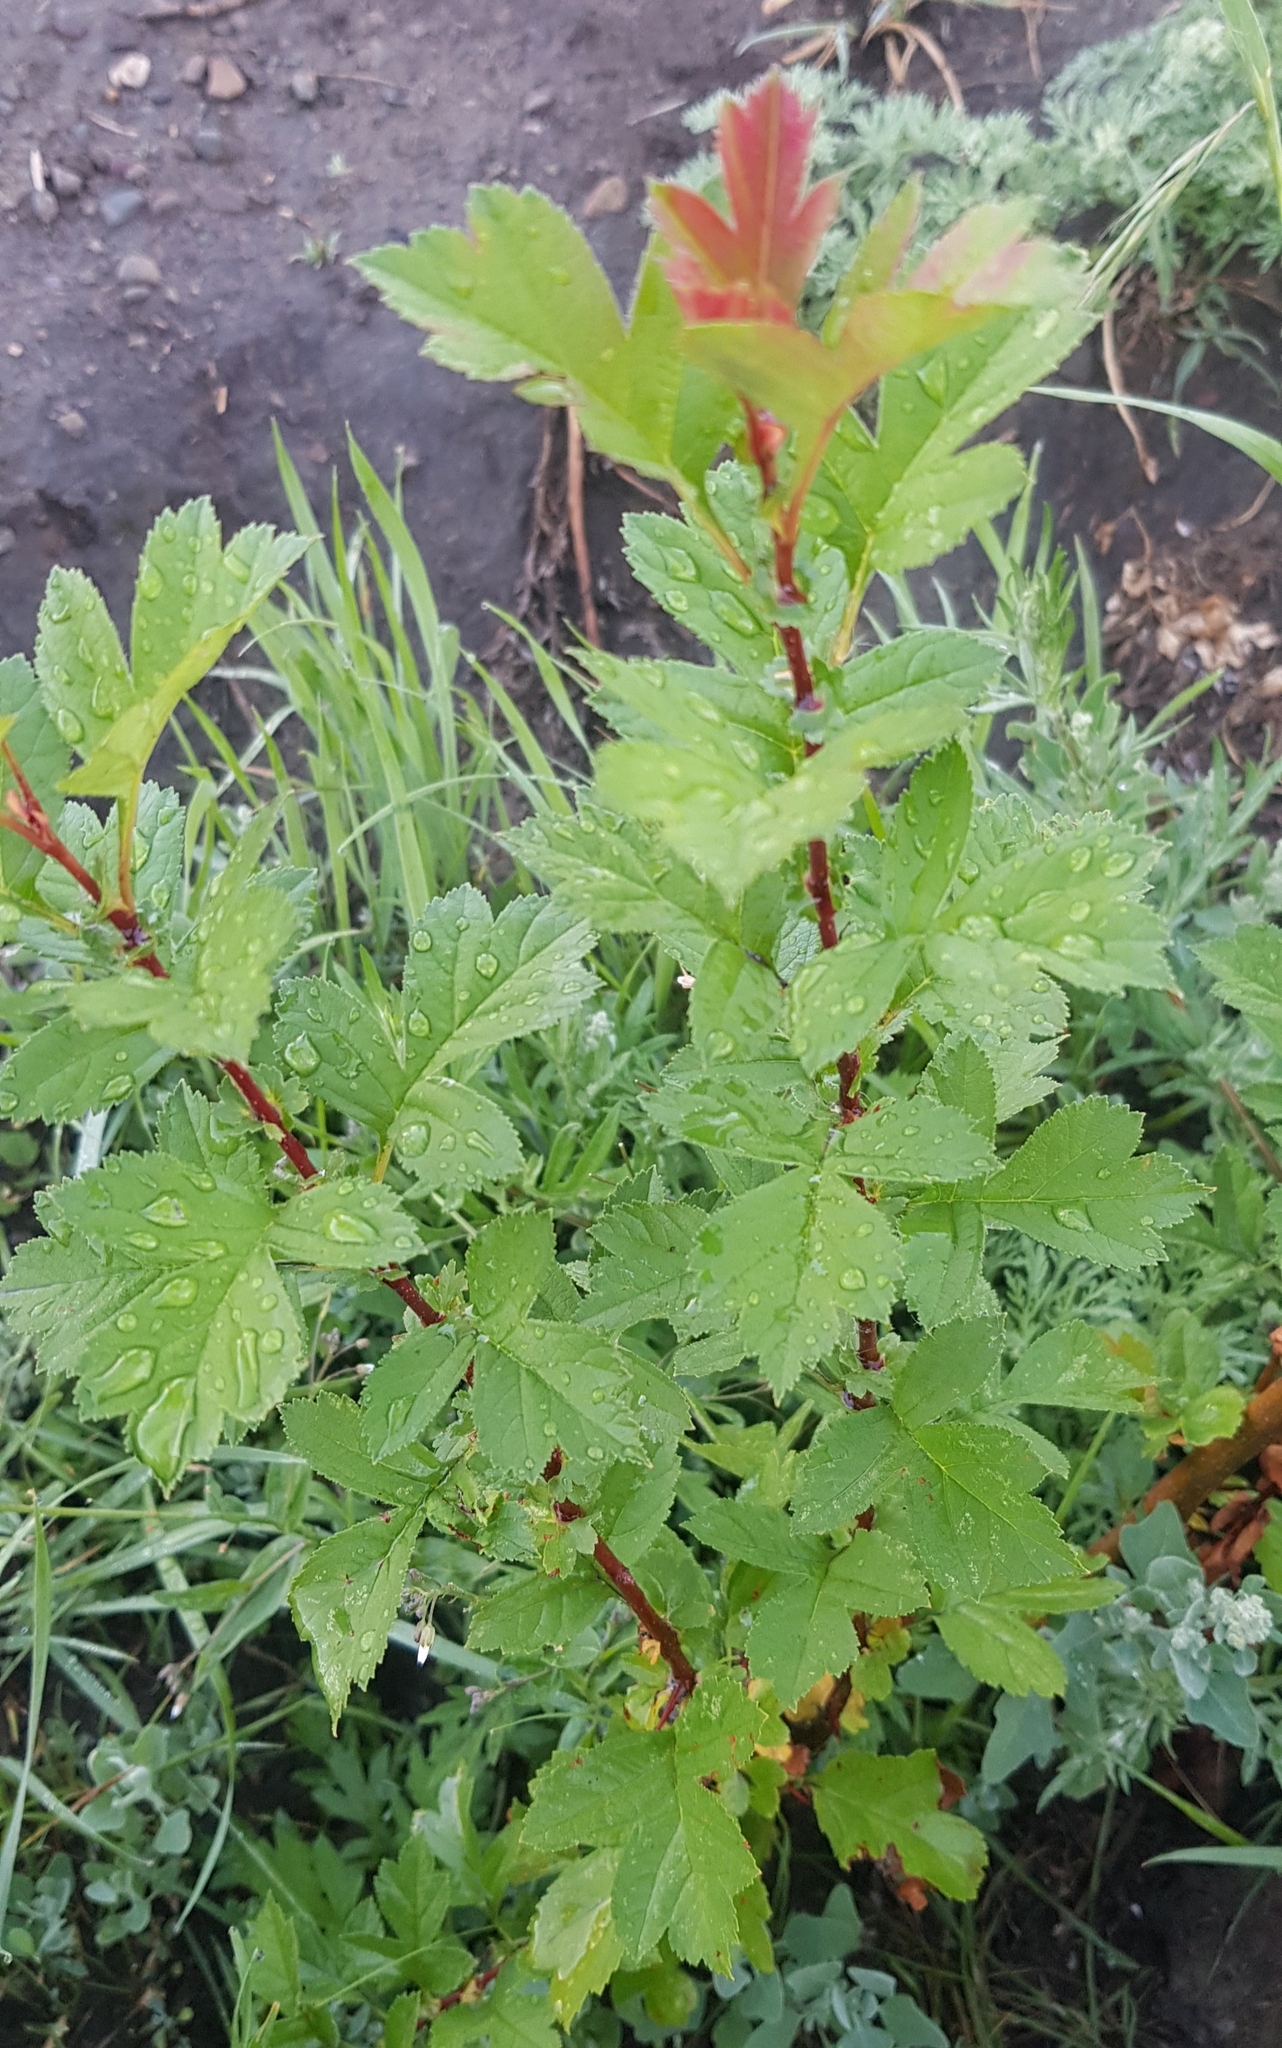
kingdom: Plantae
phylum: Tracheophyta
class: Magnoliopsida
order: Rosales
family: Rosaceae
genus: Crataegus
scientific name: Crataegus sanguinea
